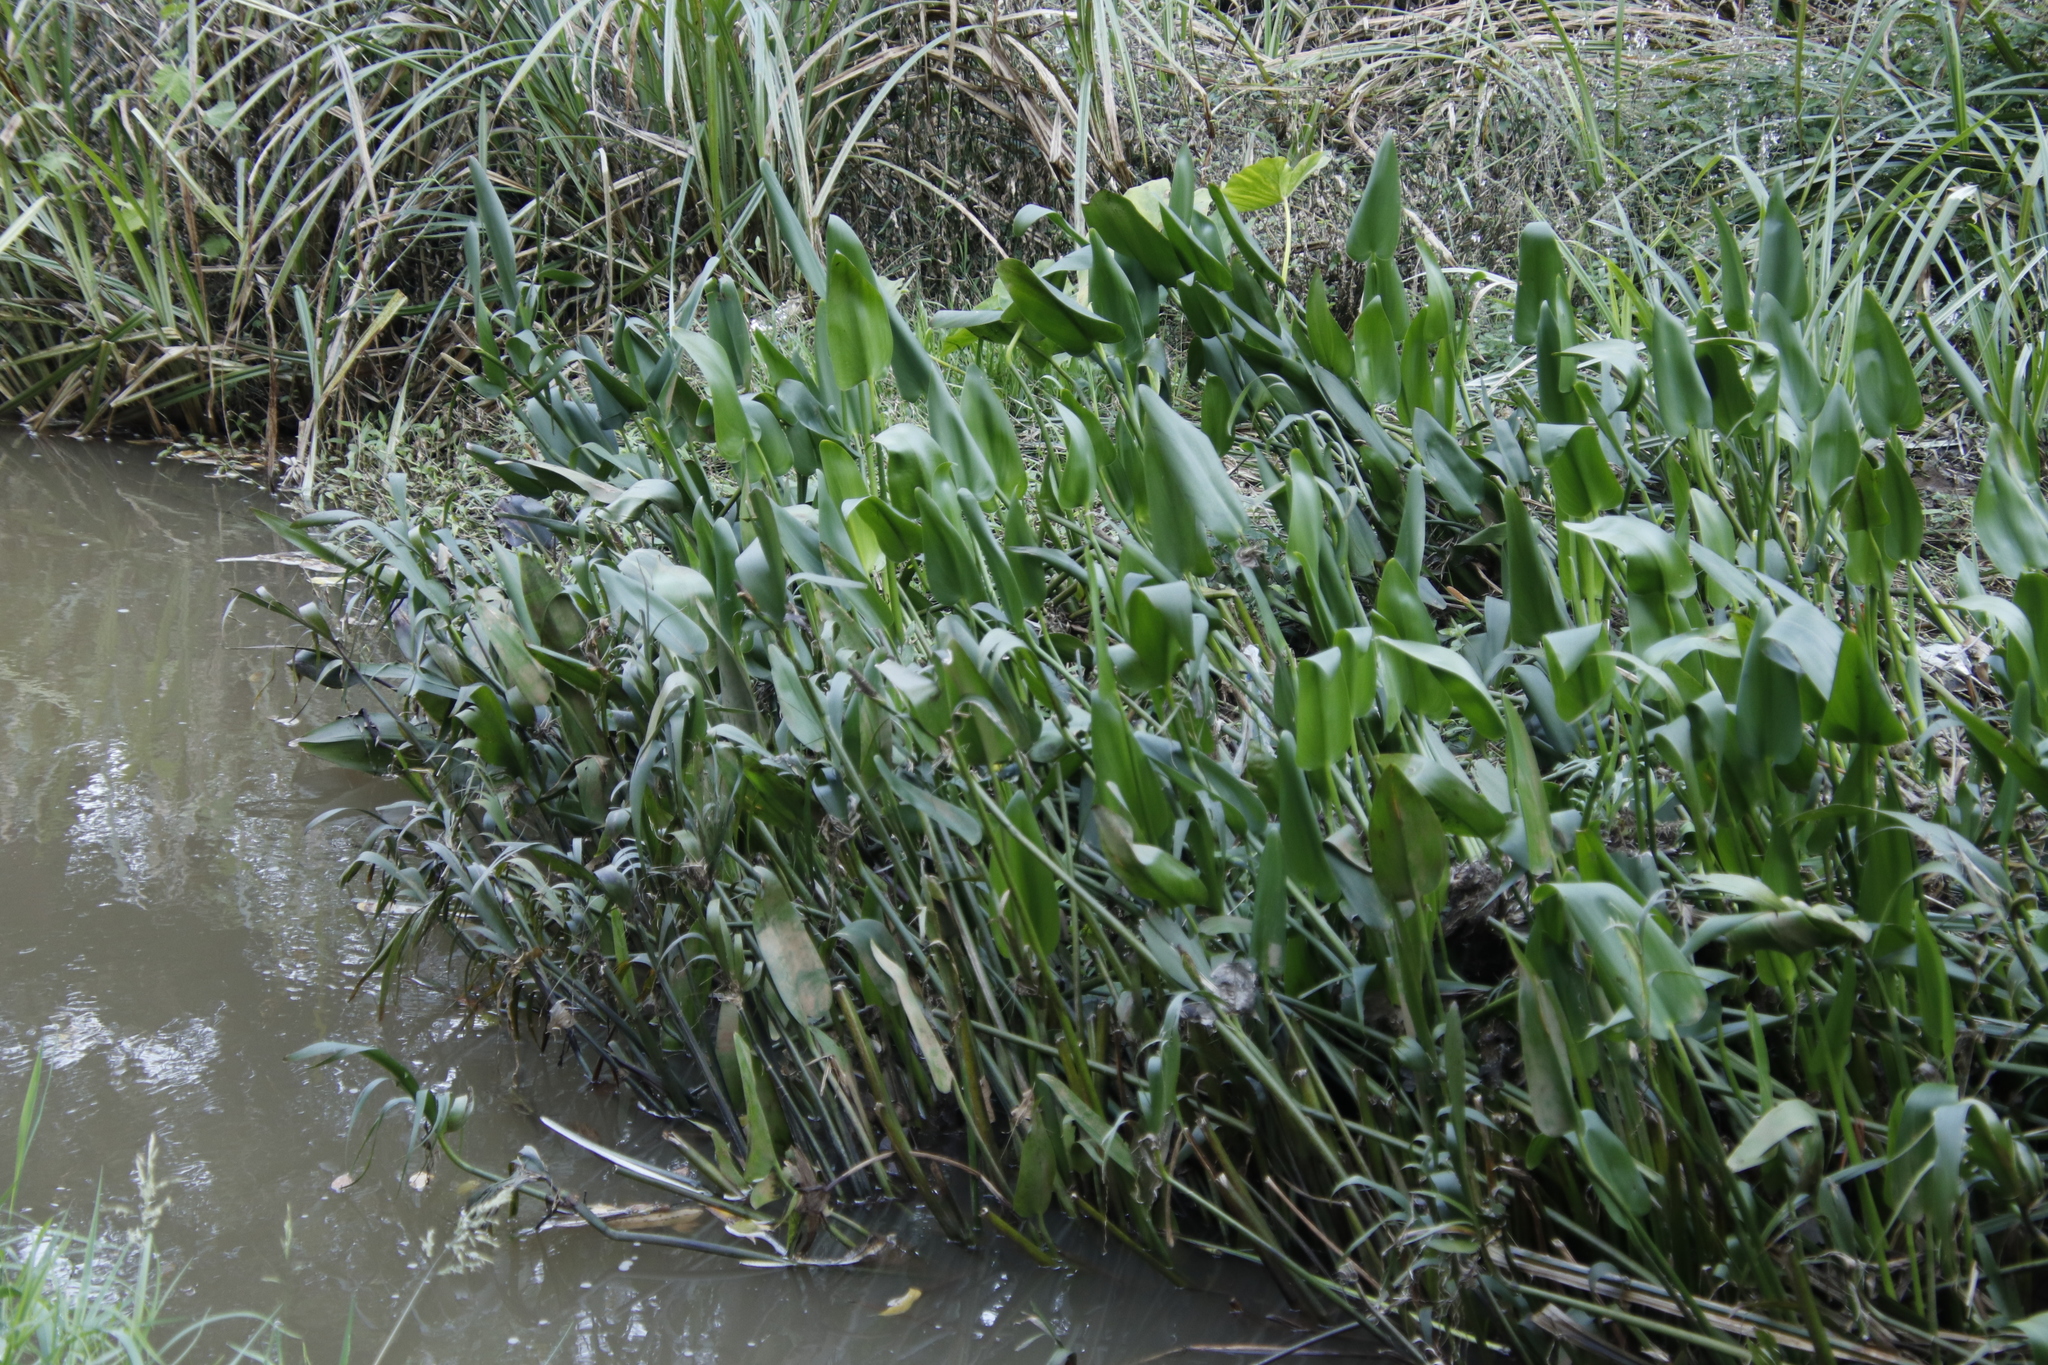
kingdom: Plantae
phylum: Tracheophyta
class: Liliopsida
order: Commelinales
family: Pontederiaceae
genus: Pontederia
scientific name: Pontederia cordata
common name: Pickerelweed
